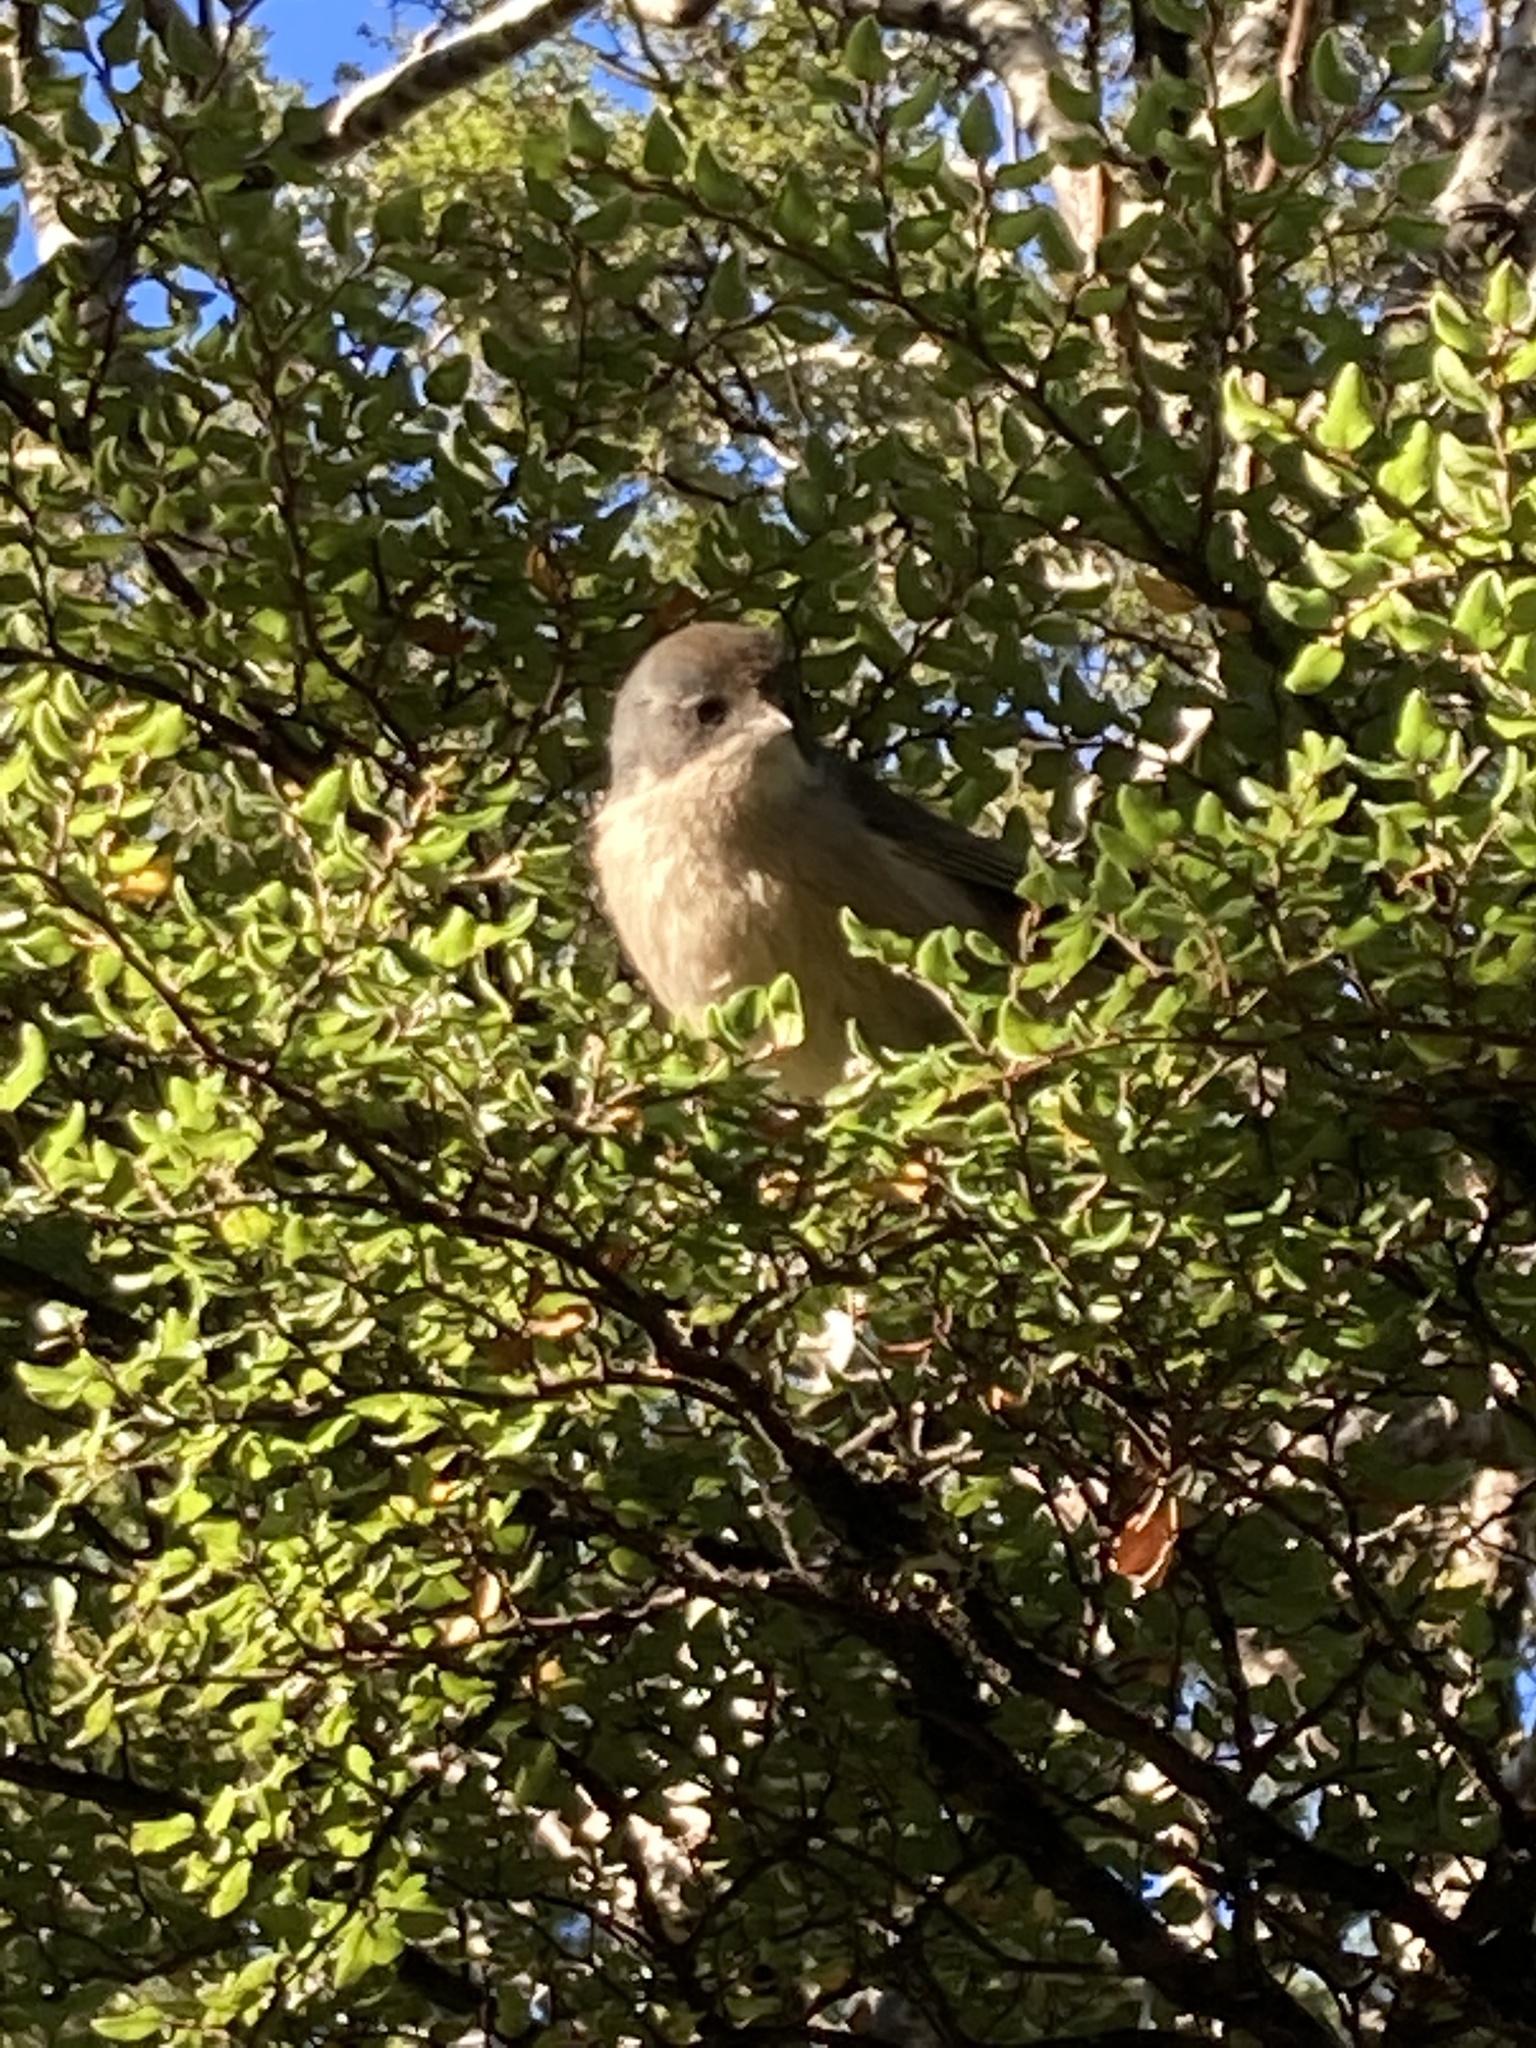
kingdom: Animalia
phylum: Chordata
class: Aves
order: Passeriformes
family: Acanthizidae
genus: Finschia
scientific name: Finschia novaeseelandiae
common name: Pipipi
